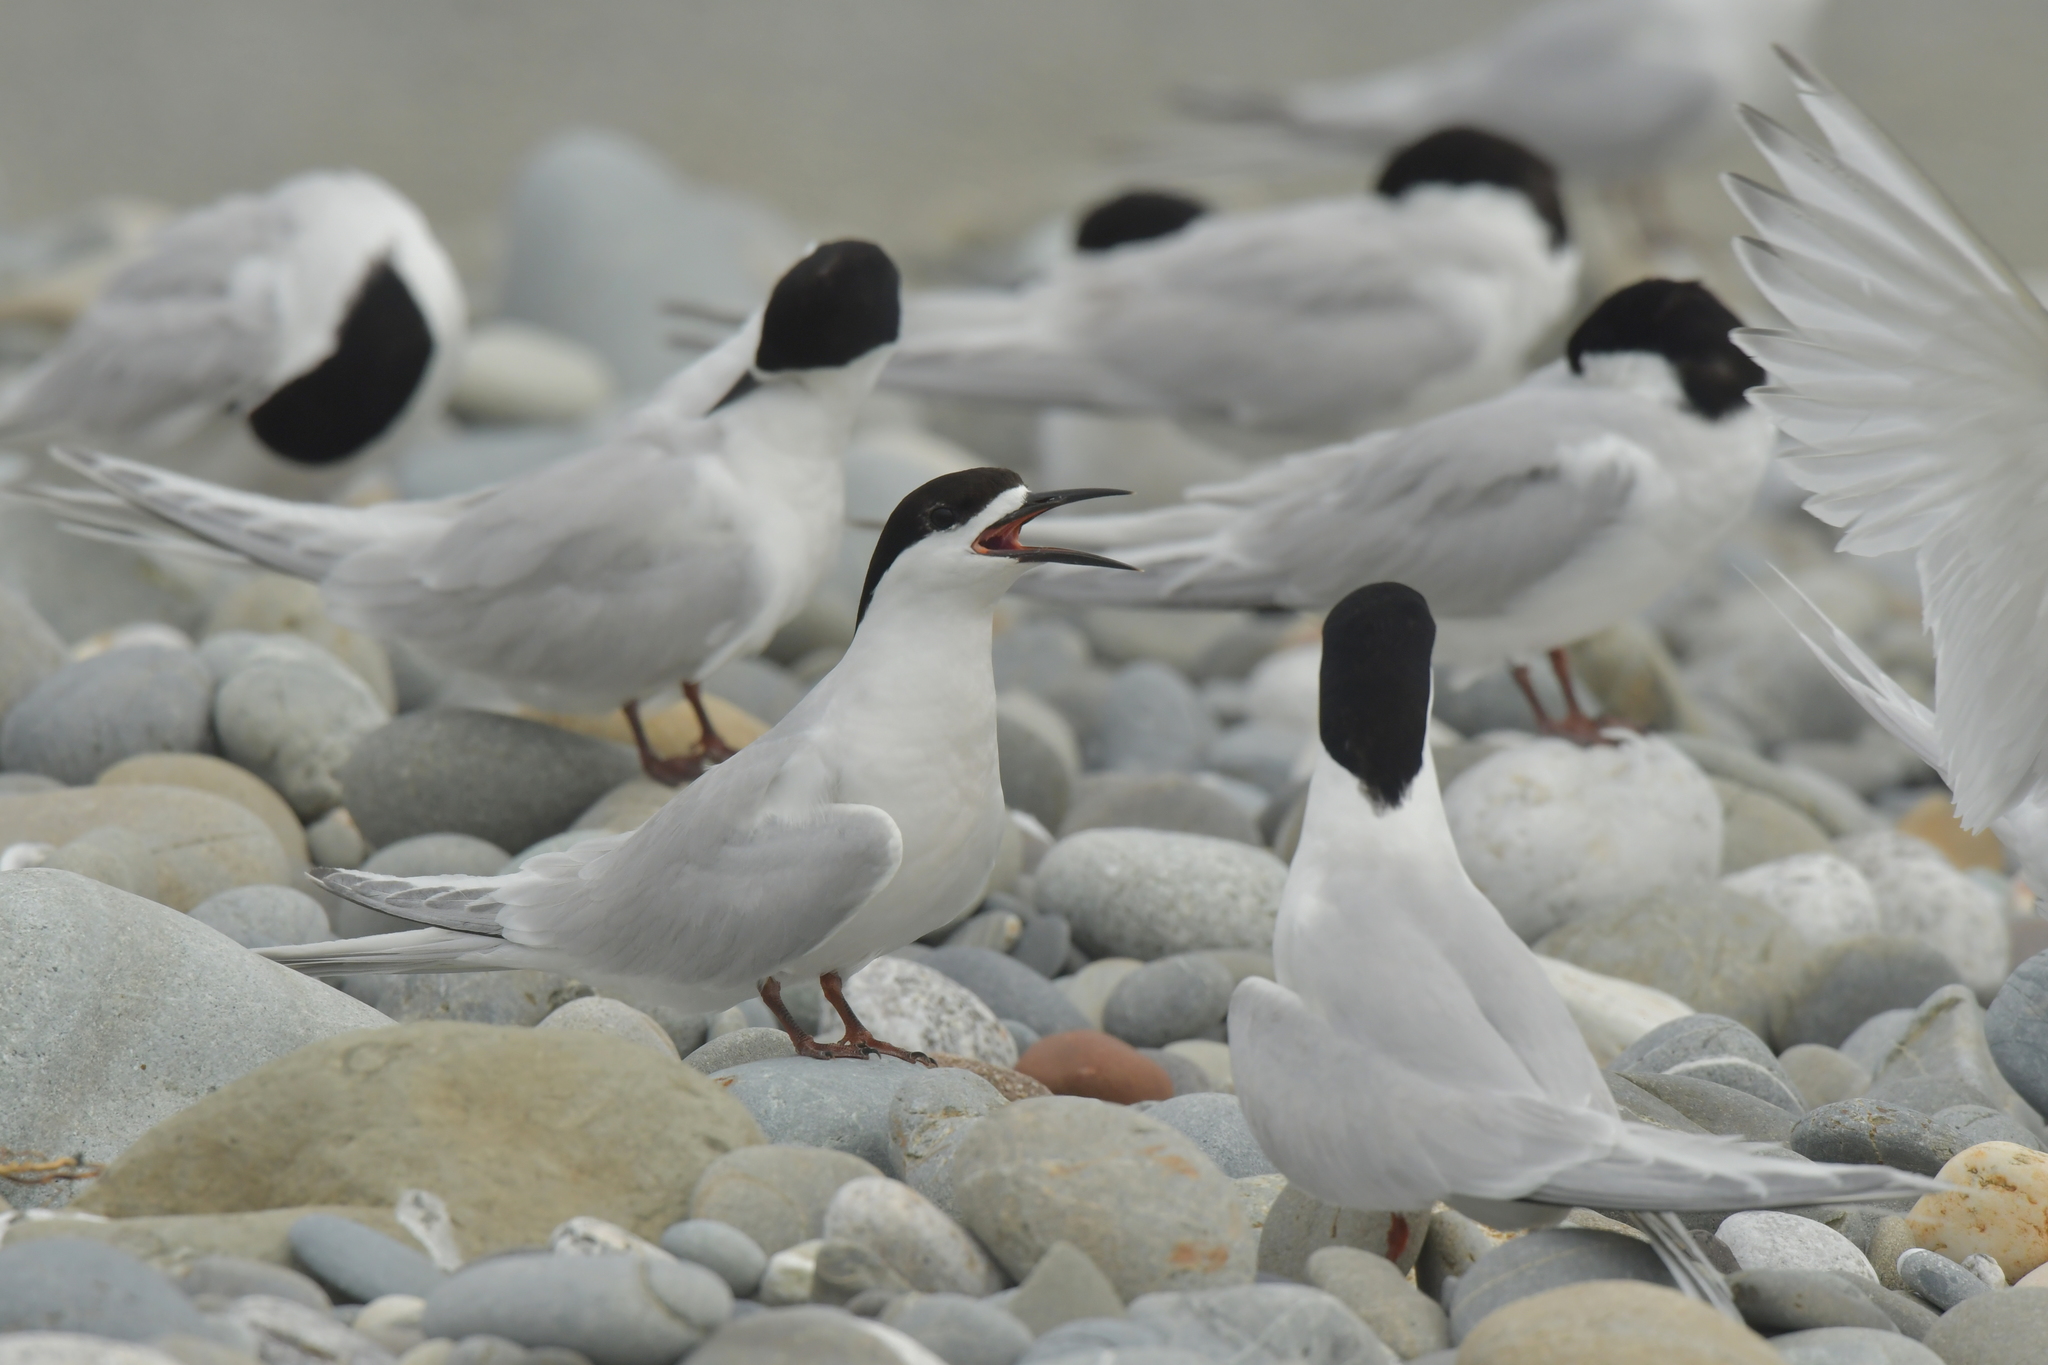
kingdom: Animalia
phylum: Chordata
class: Aves
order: Charadriiformes
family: Laridae
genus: Sterna
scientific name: Sterna striata
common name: White-fronted tern
